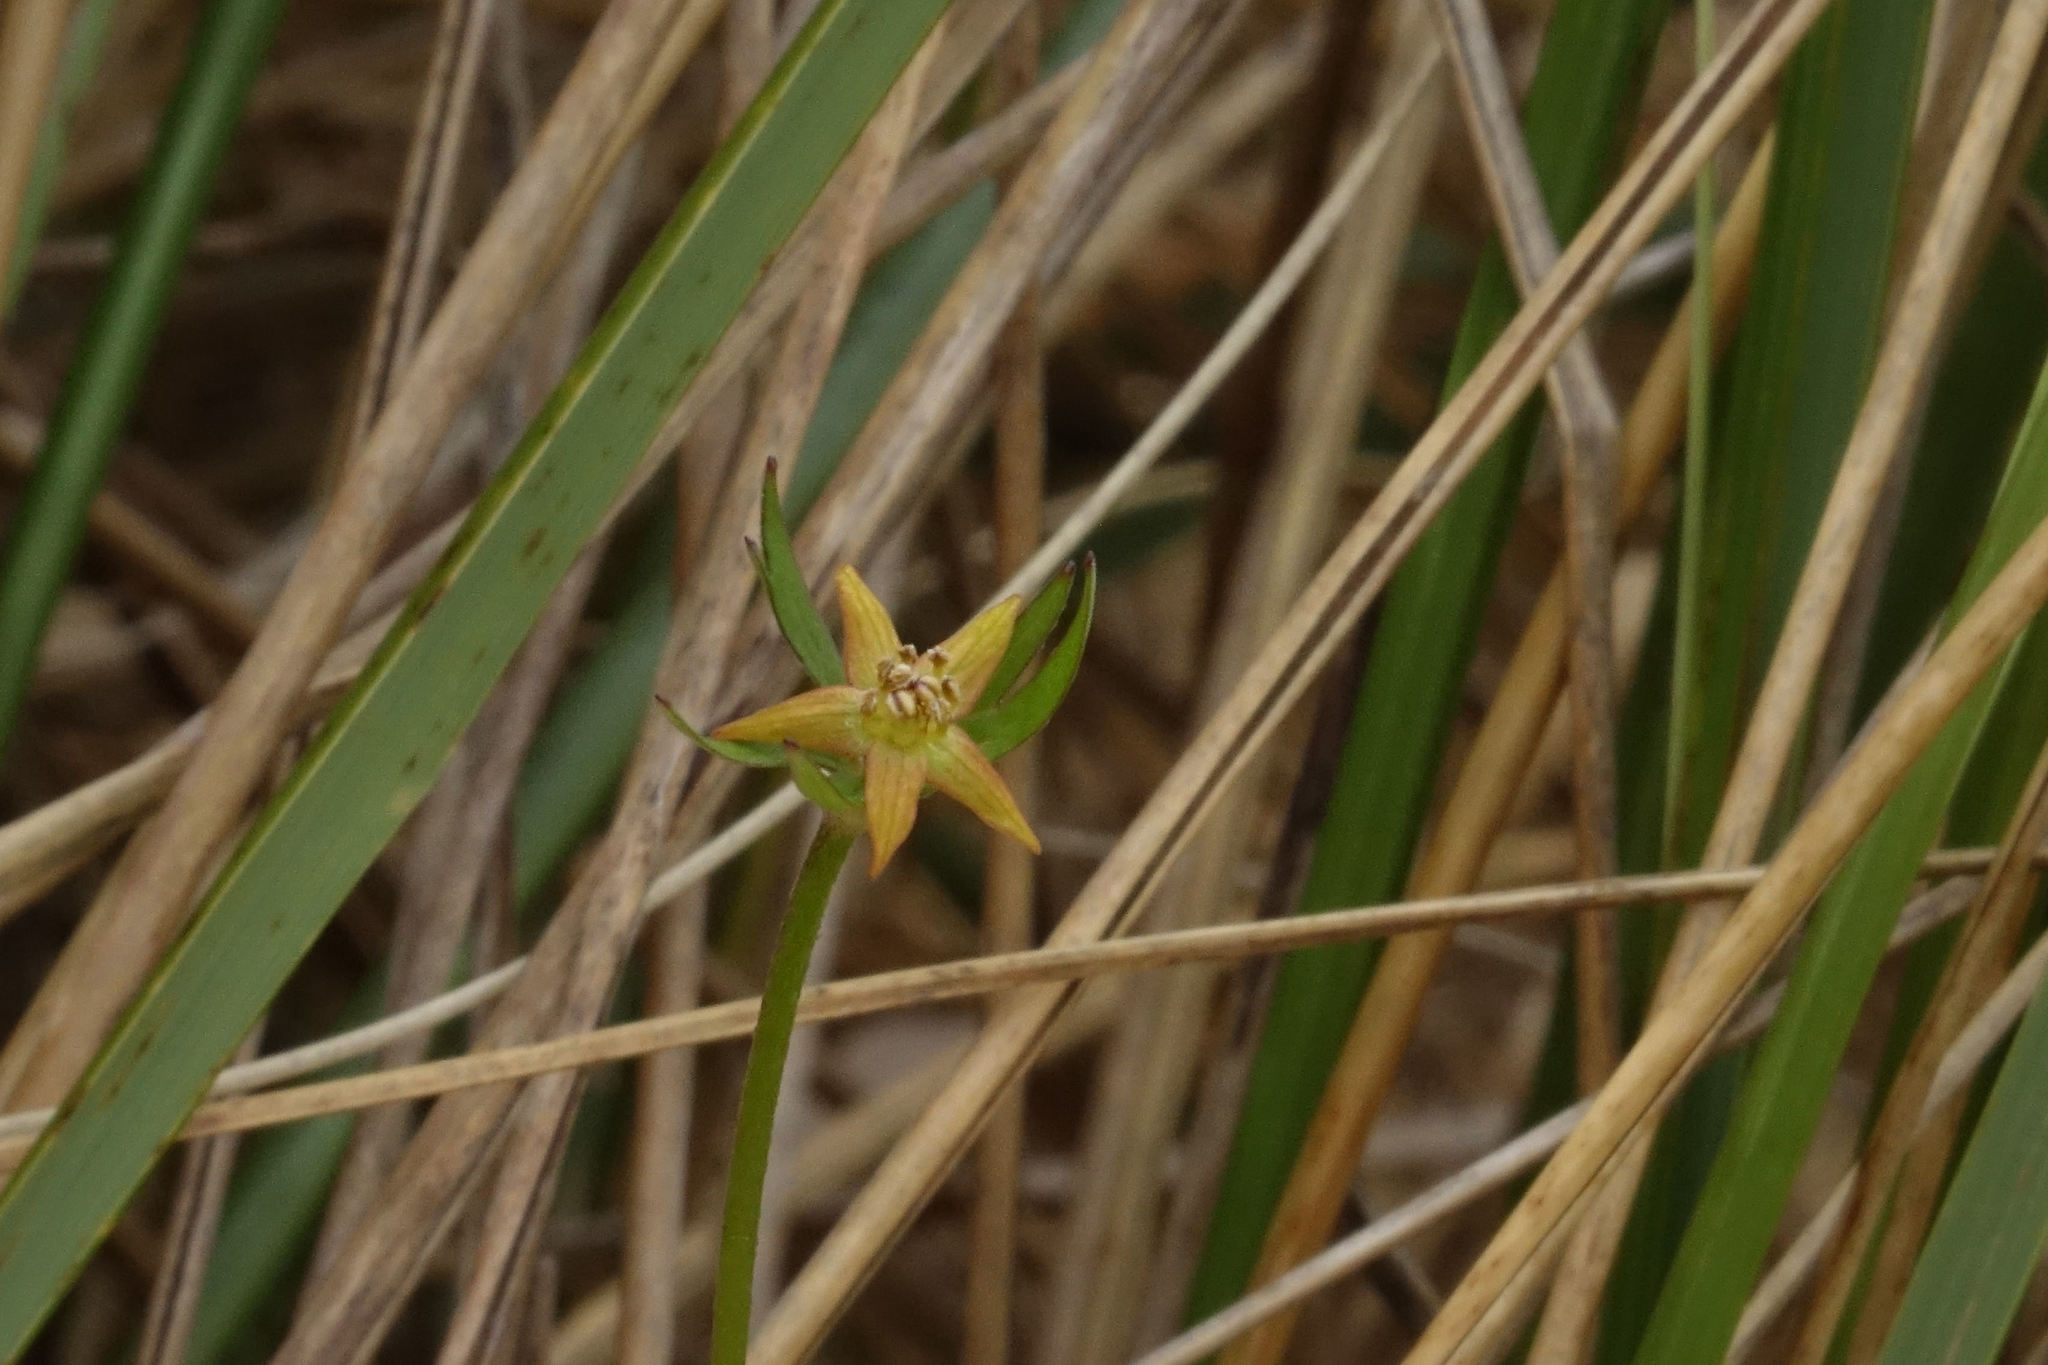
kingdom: Plantae
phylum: Tracheophyta
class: Magnoliopsida
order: Ranunculales
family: Ranunculaceae
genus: Anemonastrum
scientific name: Anemonastrum tenuicaule
